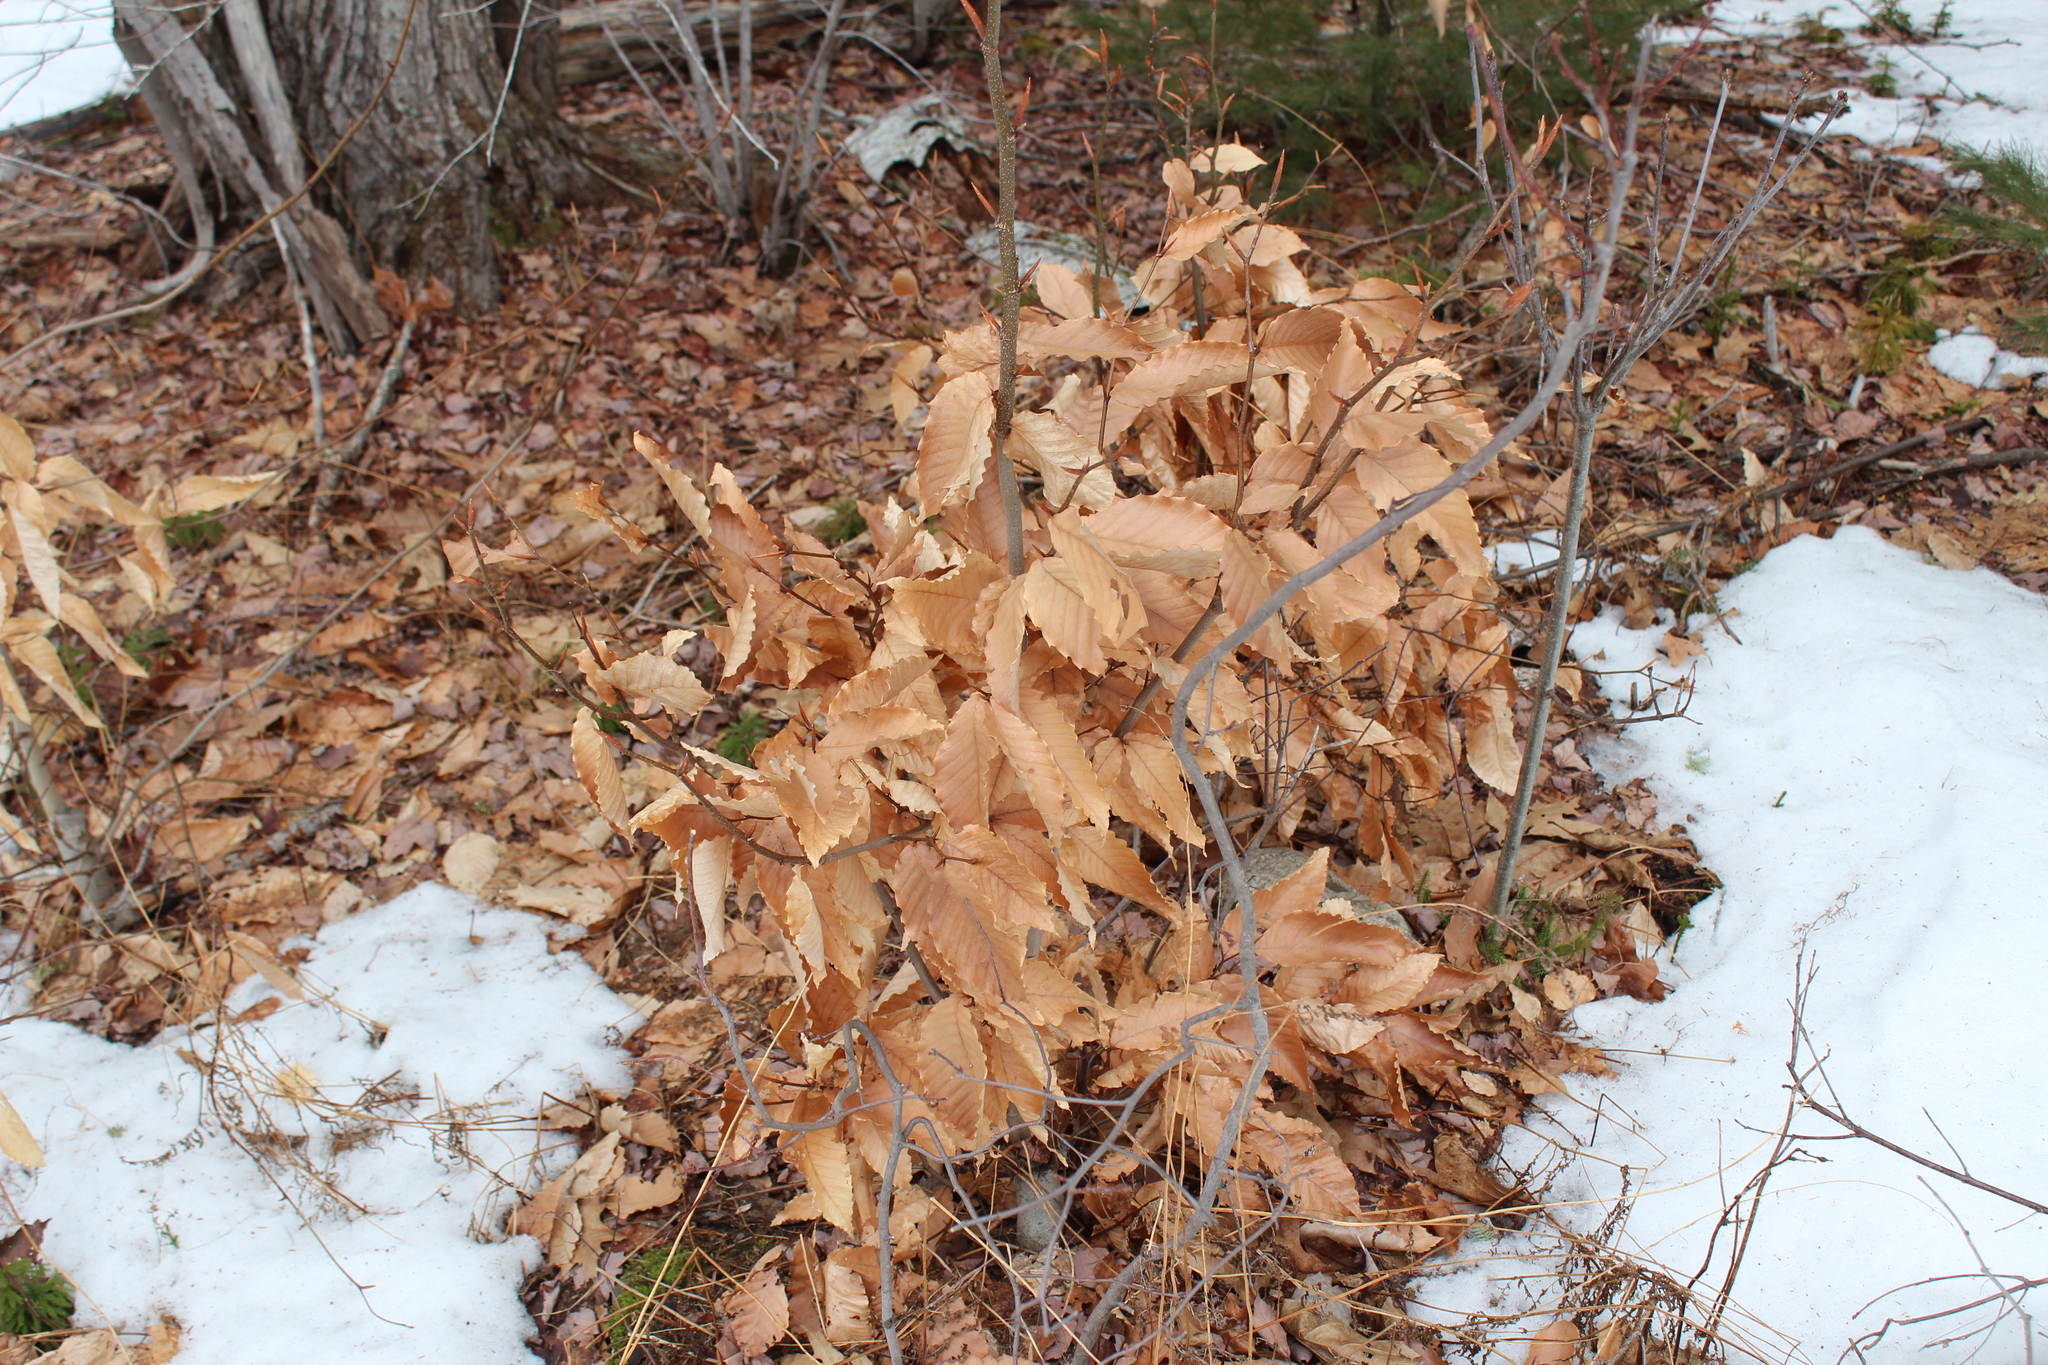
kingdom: Plantae
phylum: Tracheophyta
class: Magnoliopsida
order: Fagales
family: Fagaceae
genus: Fagus
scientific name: Fagus grandifolia
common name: American beech
